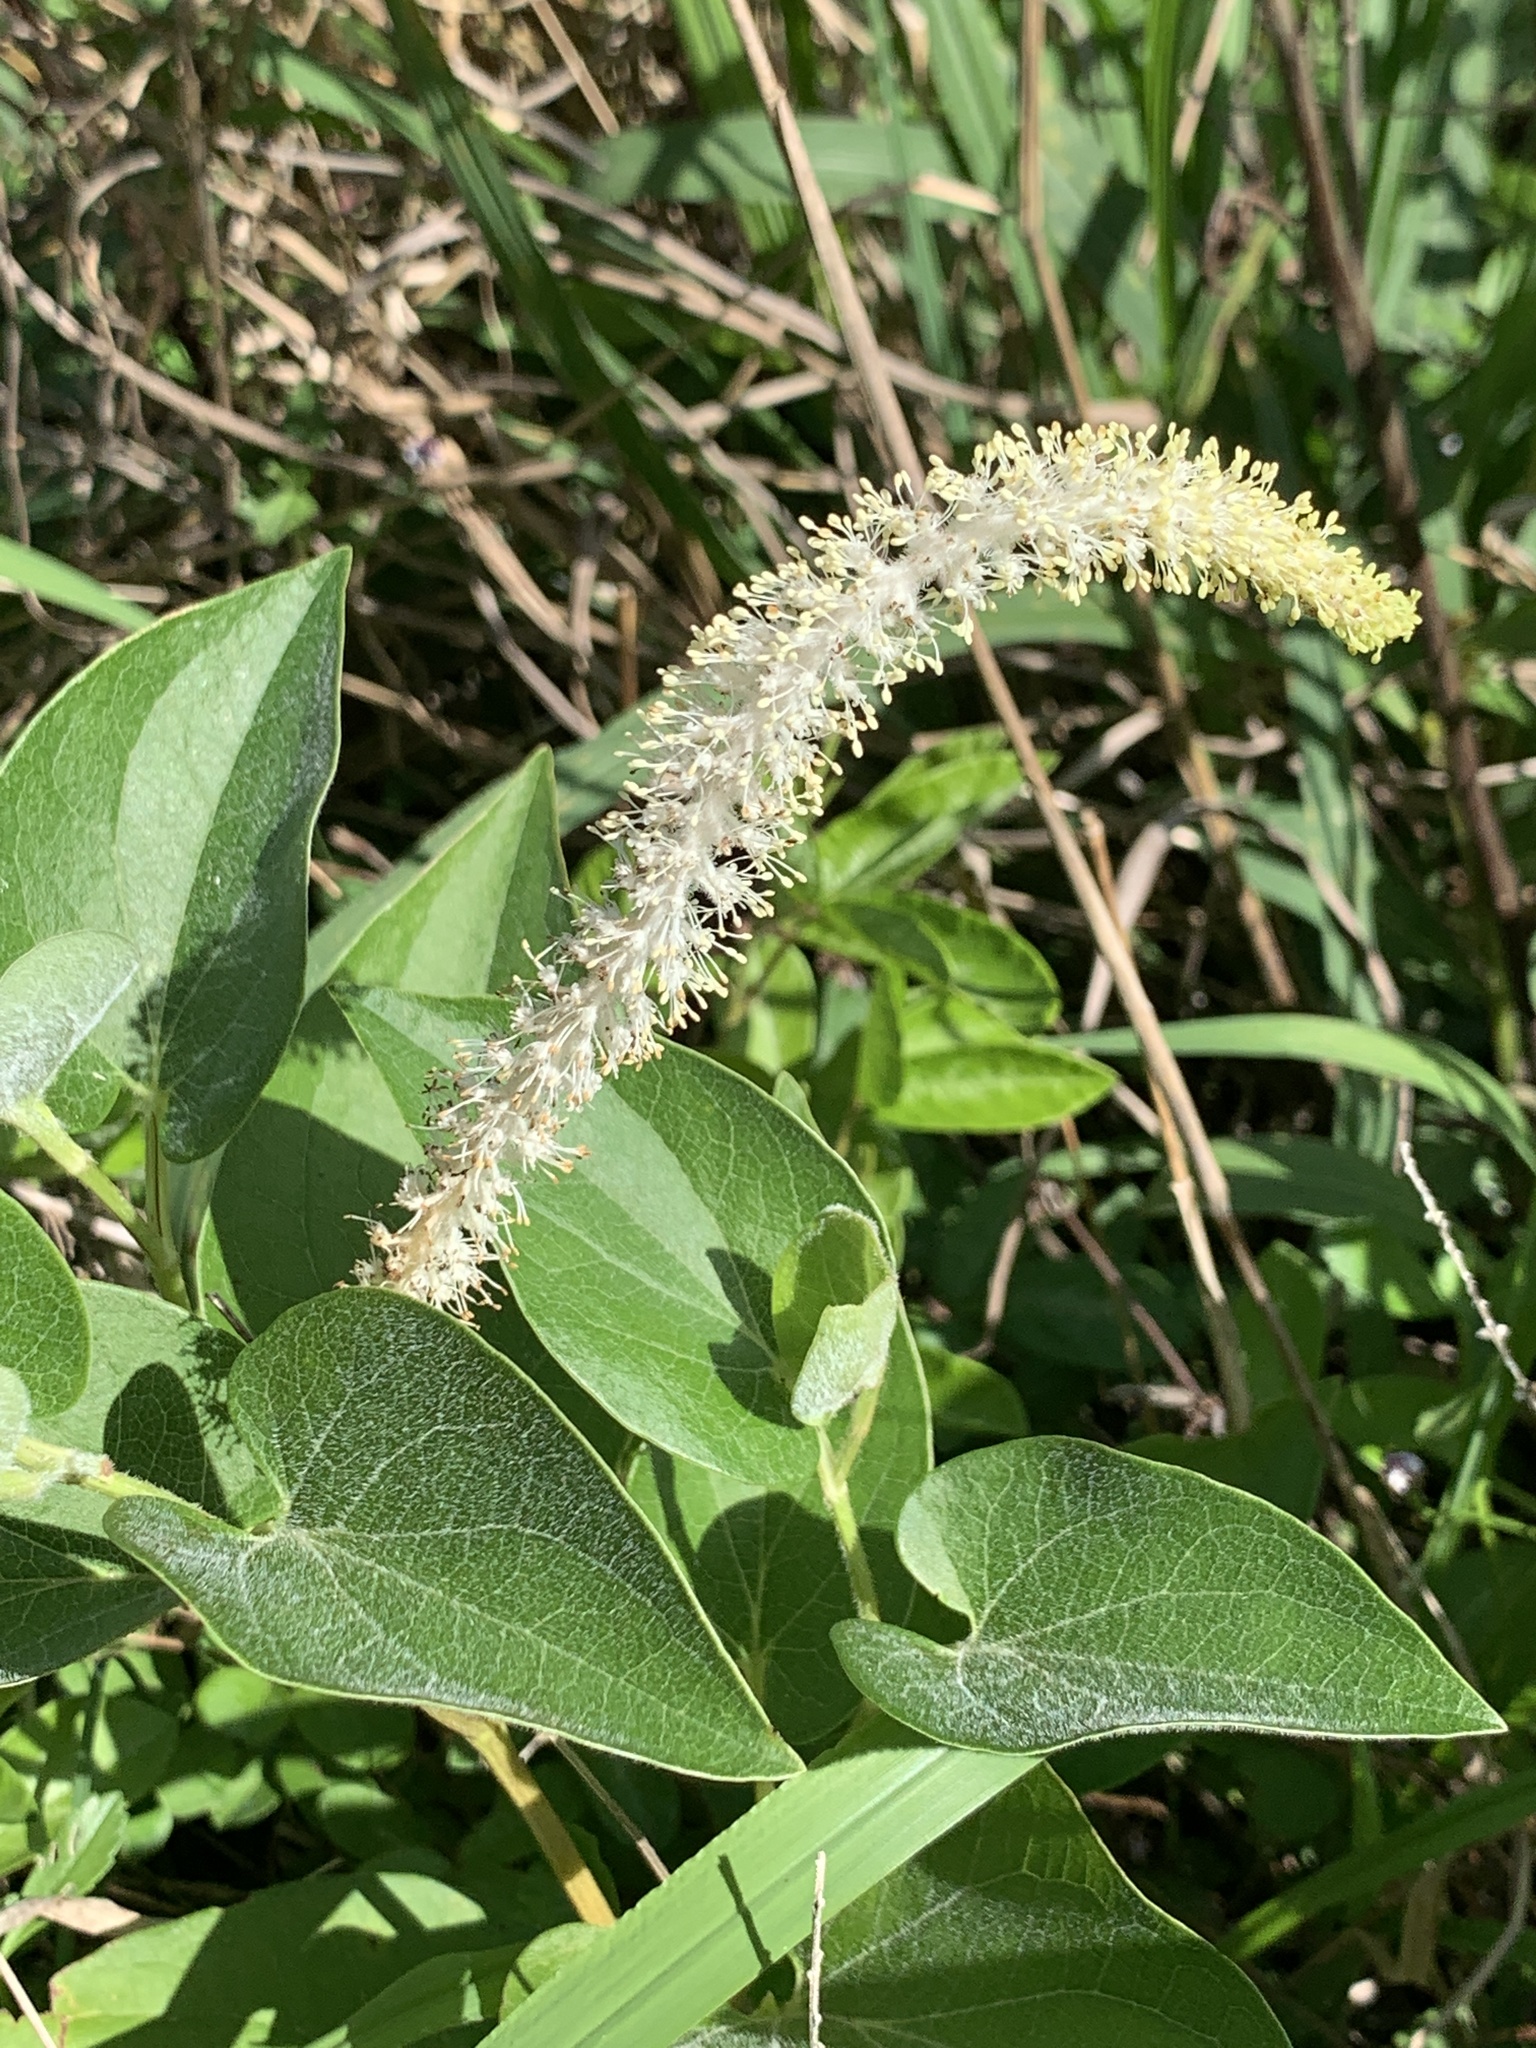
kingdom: Plantae
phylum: Tracheophyta
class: Magnoliopsida
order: Piperales
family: Saururaceae
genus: Saururus
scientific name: Saururus cernuus
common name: Lizard's-tail
